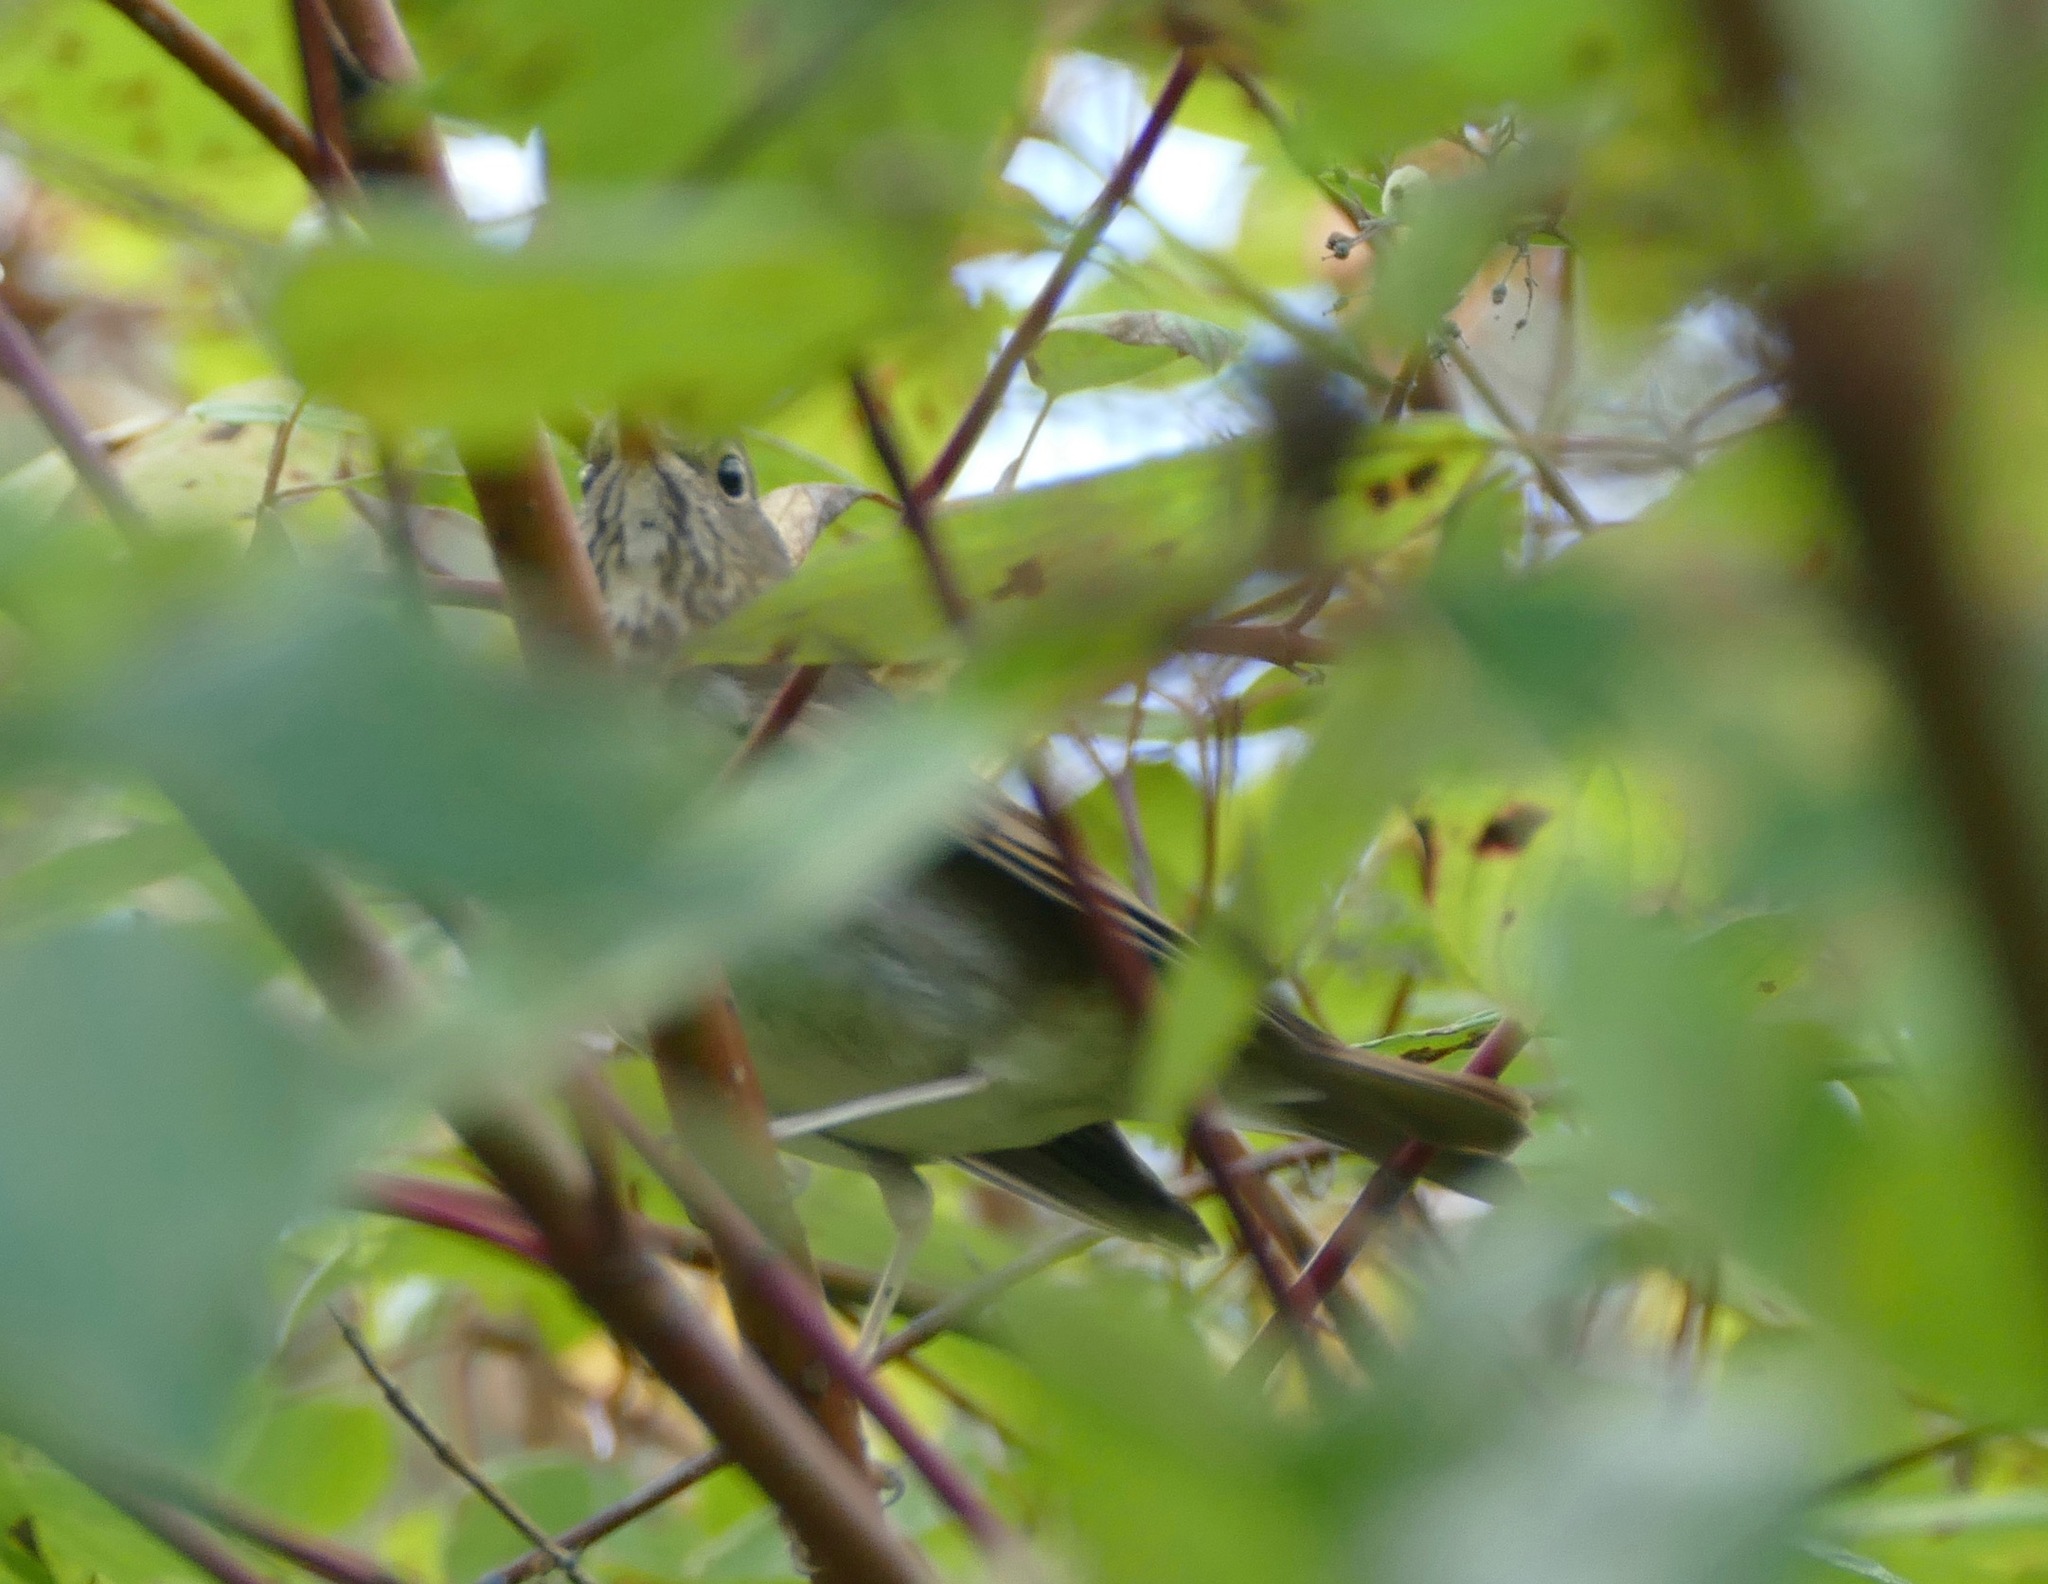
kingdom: Animalia
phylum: Chordata
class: Aves
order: Passeriformes
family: Turdidae
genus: Catharus
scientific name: Catharus guttatus
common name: Hermit thrush
